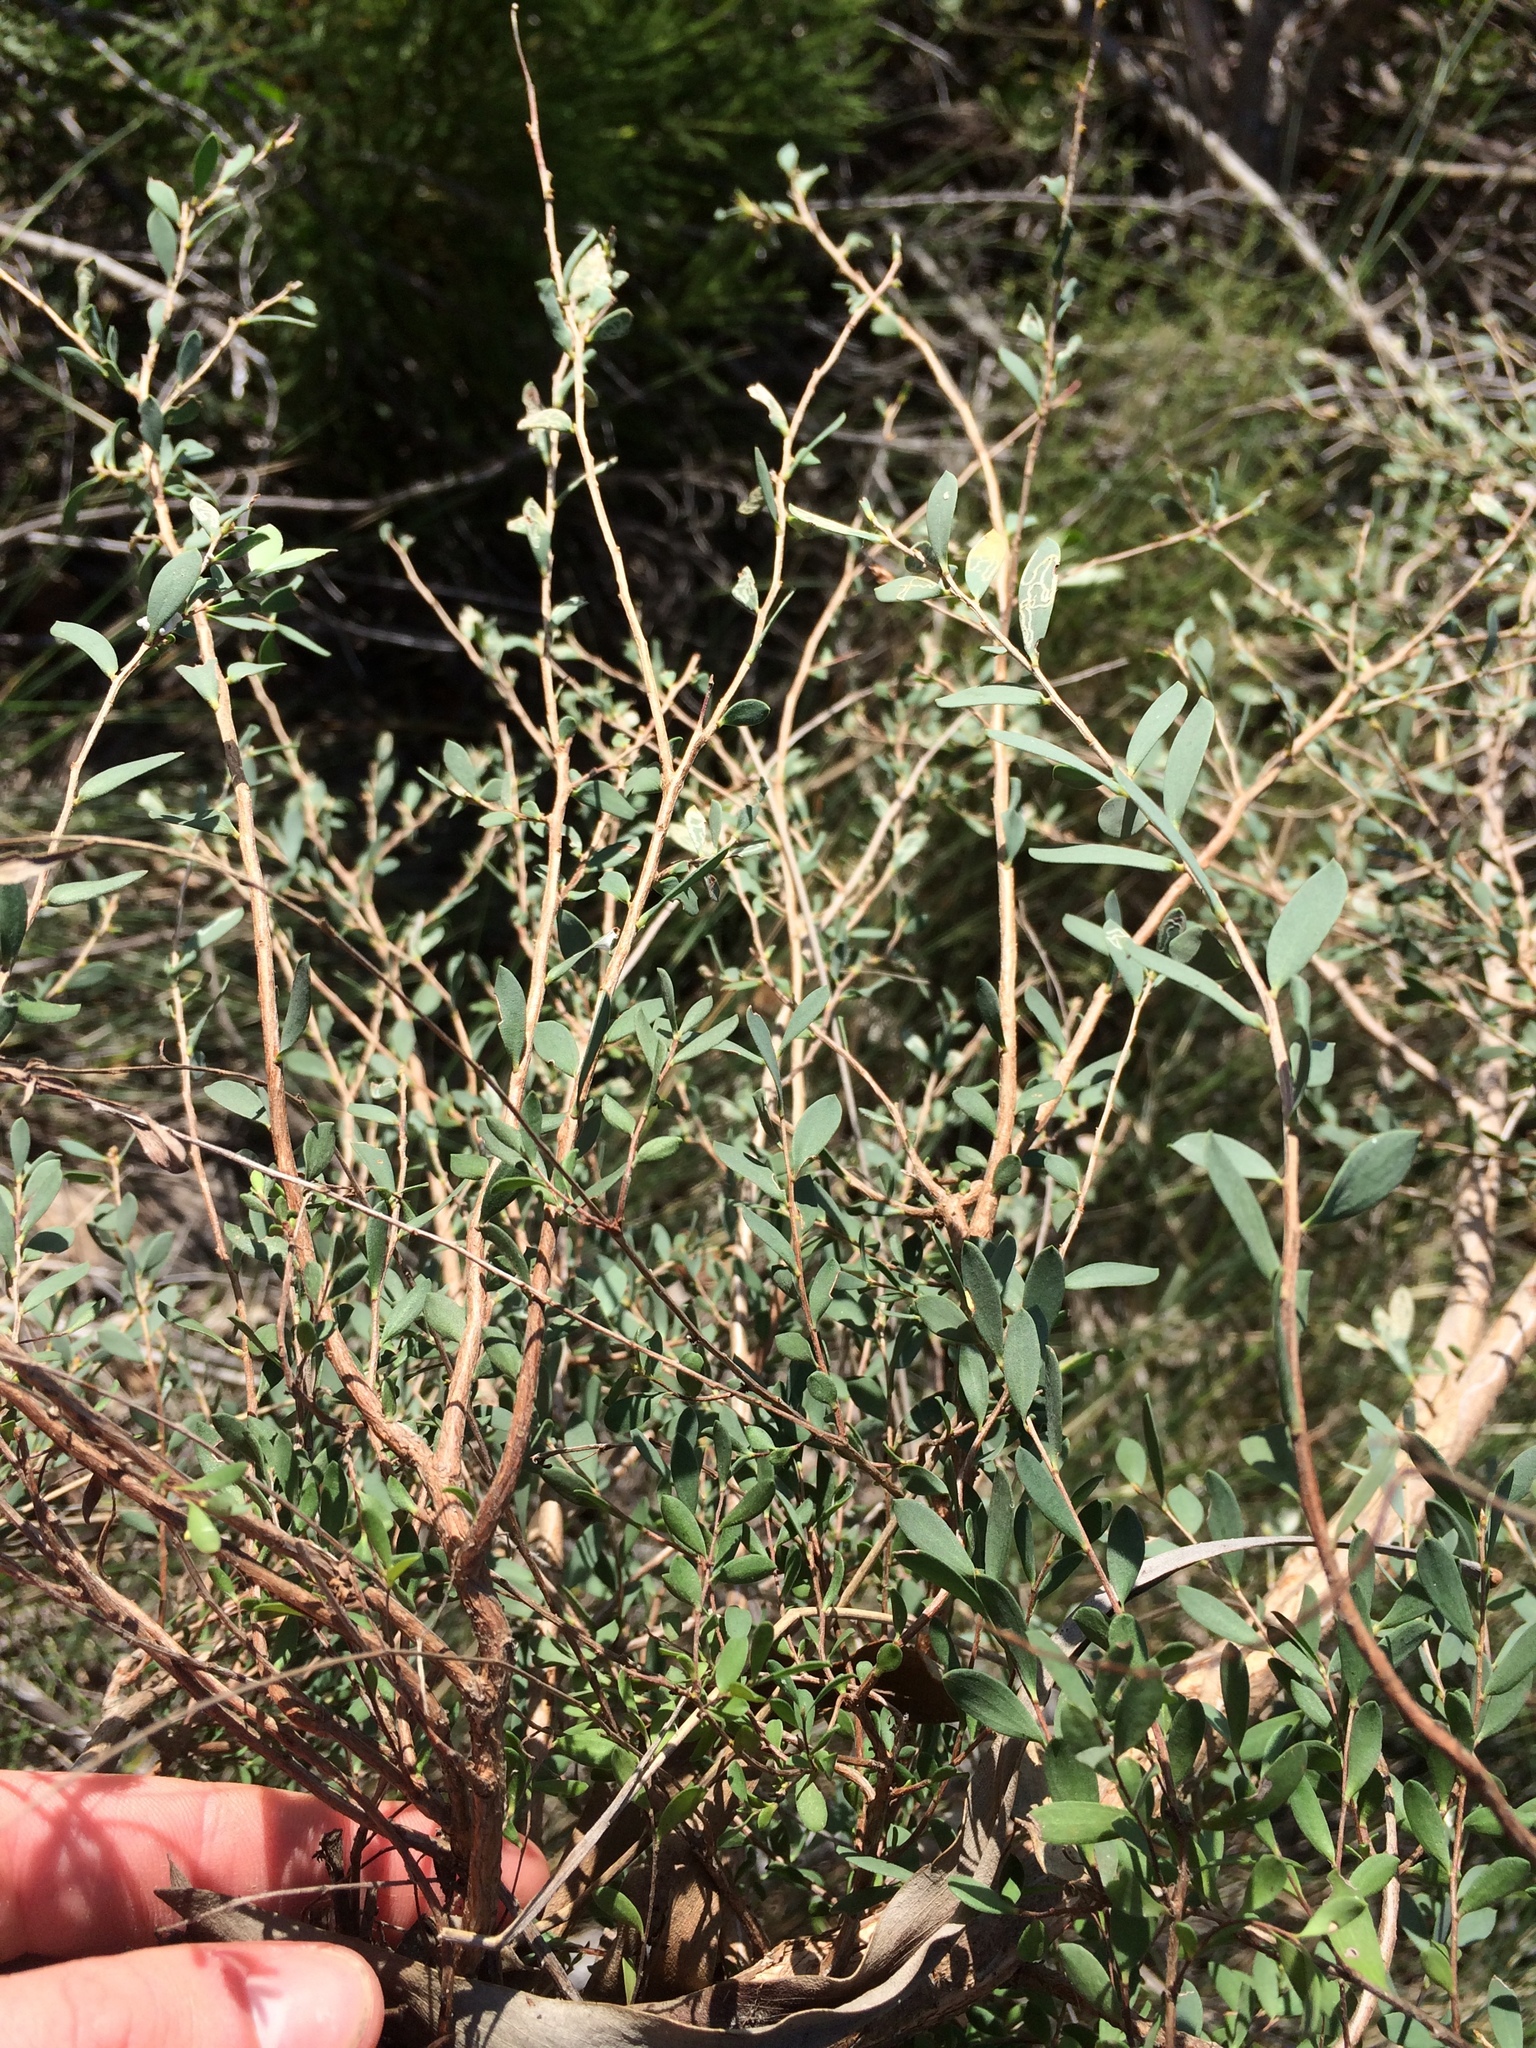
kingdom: Plantae
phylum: Tracheophyta
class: Magnoliopsida
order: Myrtales
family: Myrtaceae
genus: Leptospermum
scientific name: Leptospermum laevigatum
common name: Australian teatree
